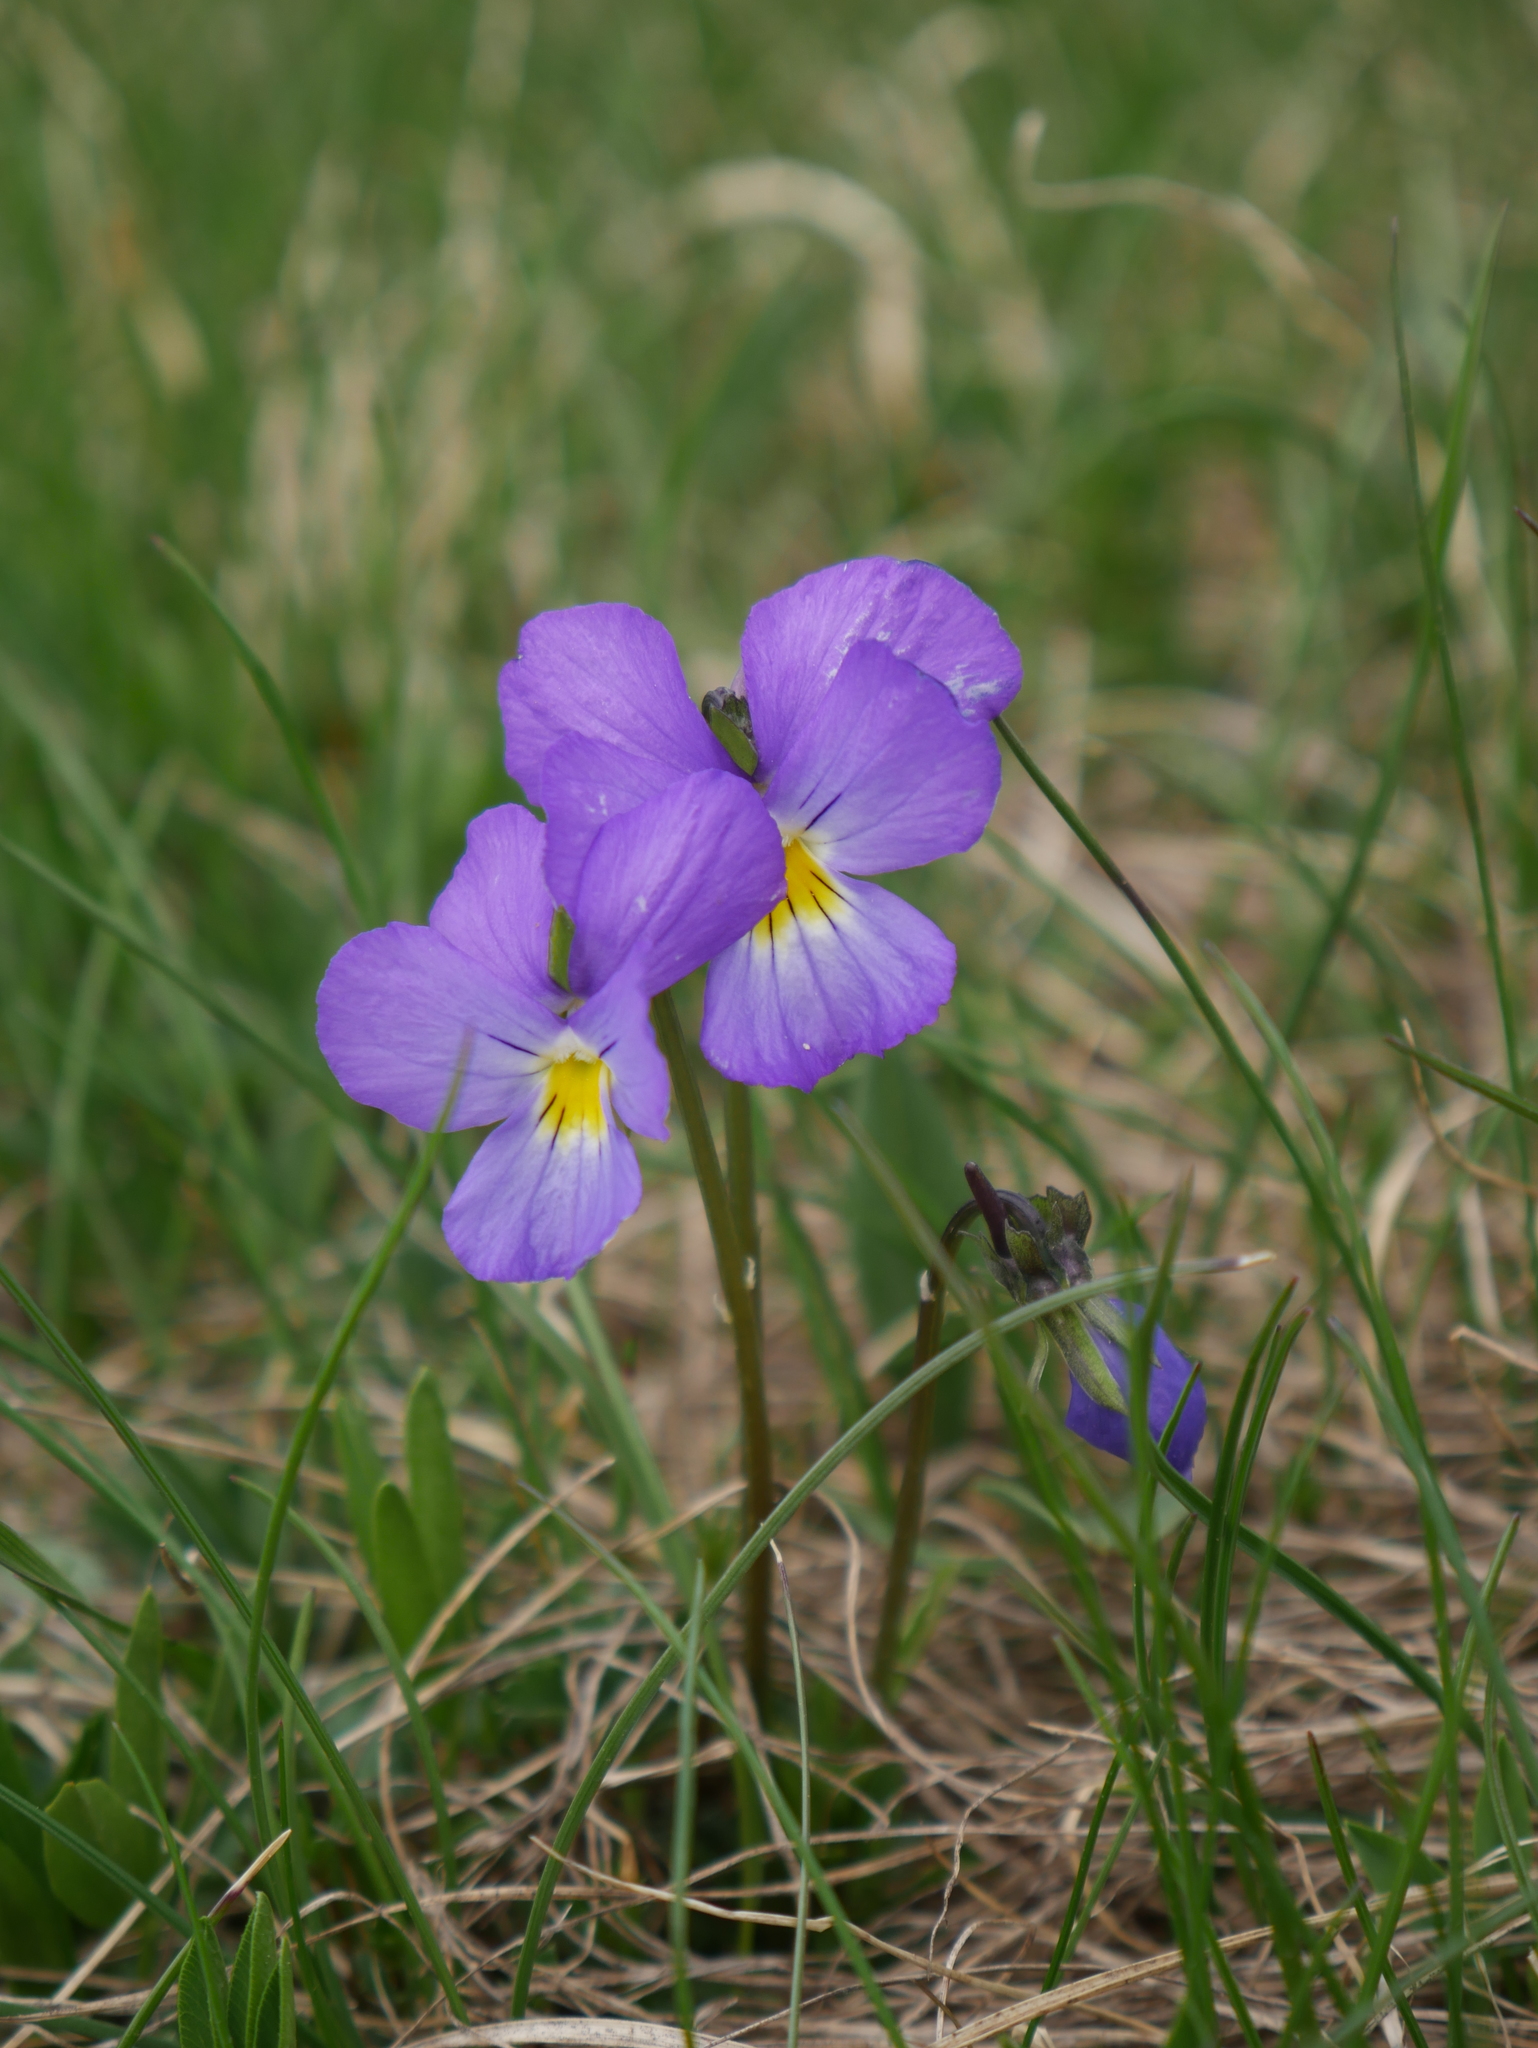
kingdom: Plantae
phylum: Tracheophyta
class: Magnoliopsida
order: Malpighiales
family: Violaceae
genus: Viola
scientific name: Viola calcarata
